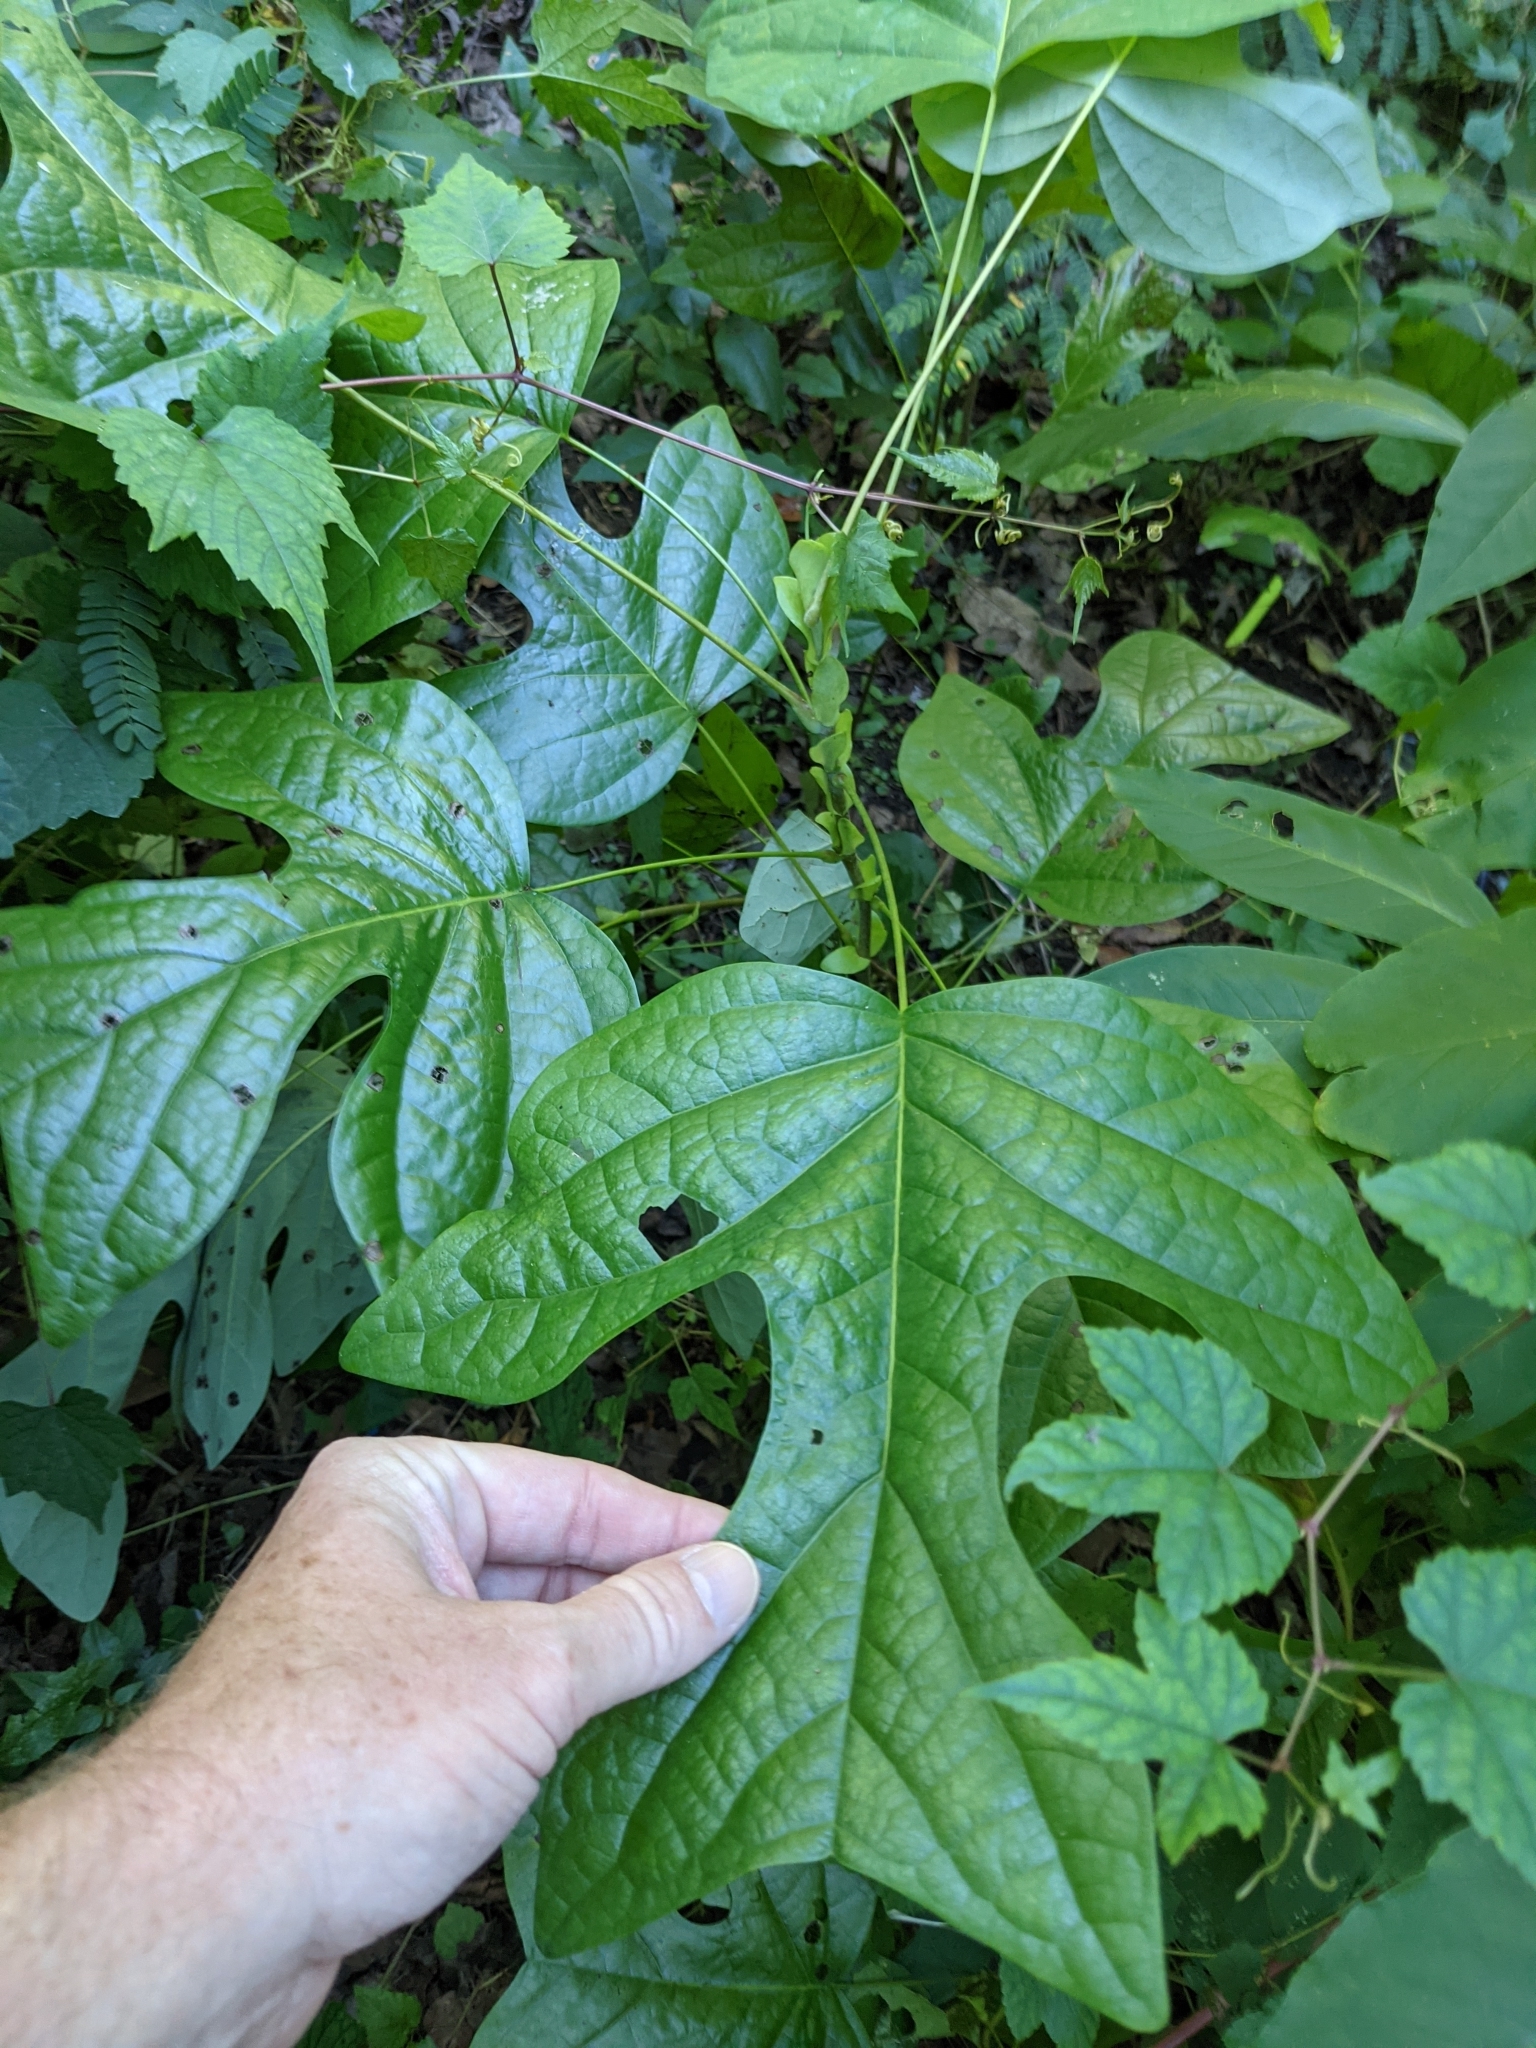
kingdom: Plantae
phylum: Tracheophyta
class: Magnoliopsida
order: Magnoliales
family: Magnoliaceae
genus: Liriodendron
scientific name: Liriodendron tulipifera
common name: Tulip tree
